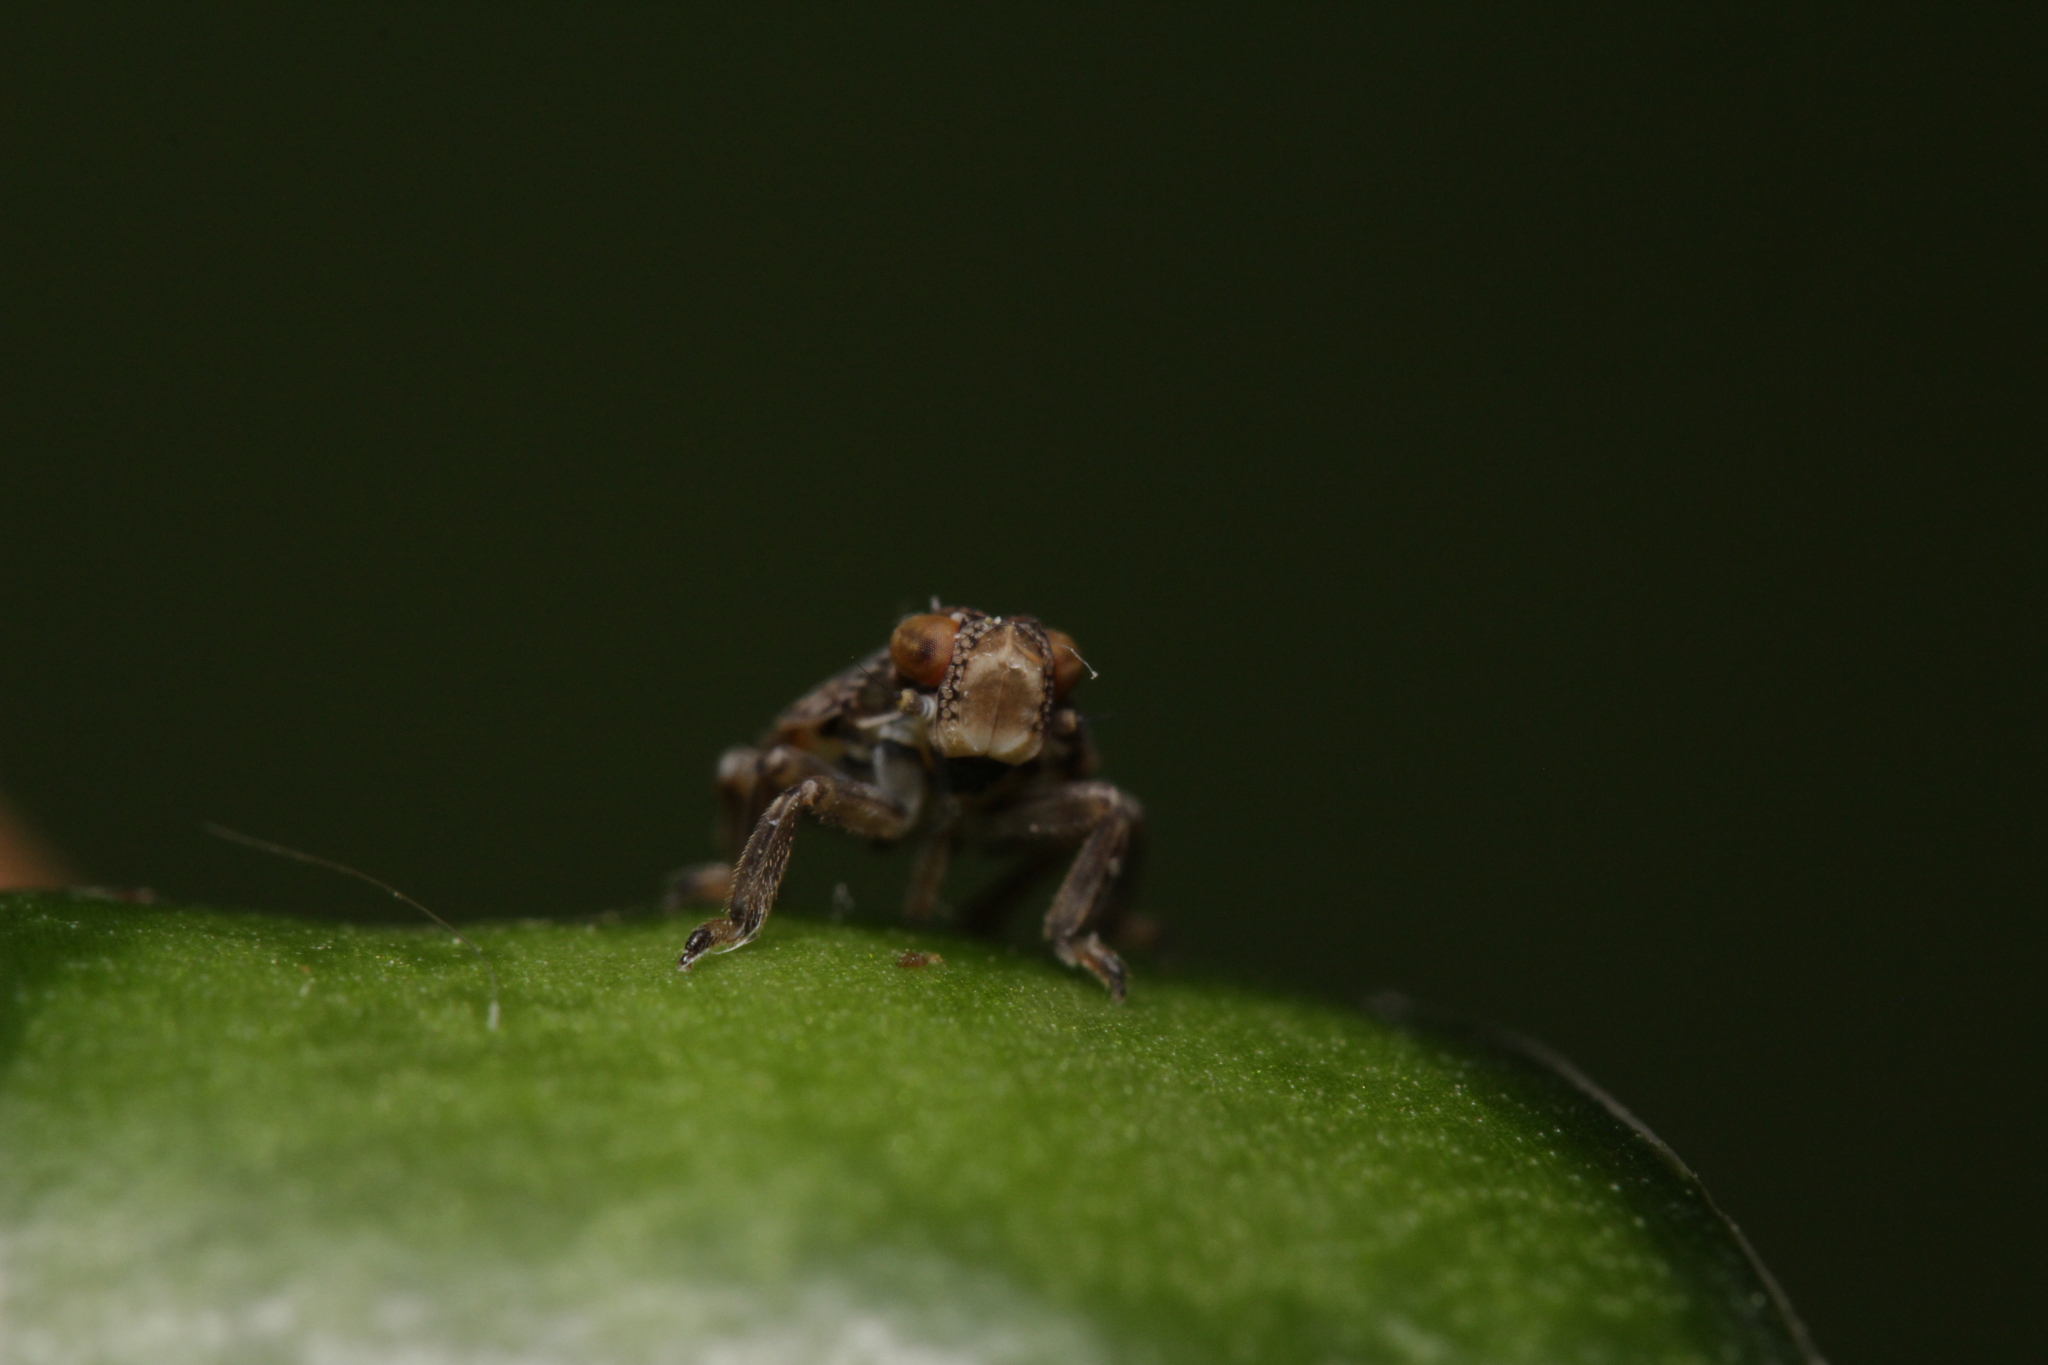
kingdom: Animalia
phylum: Arthropoda
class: Insecta
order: Hemiptera
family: Issidae
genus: Issus
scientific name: Issus coleoptratus
